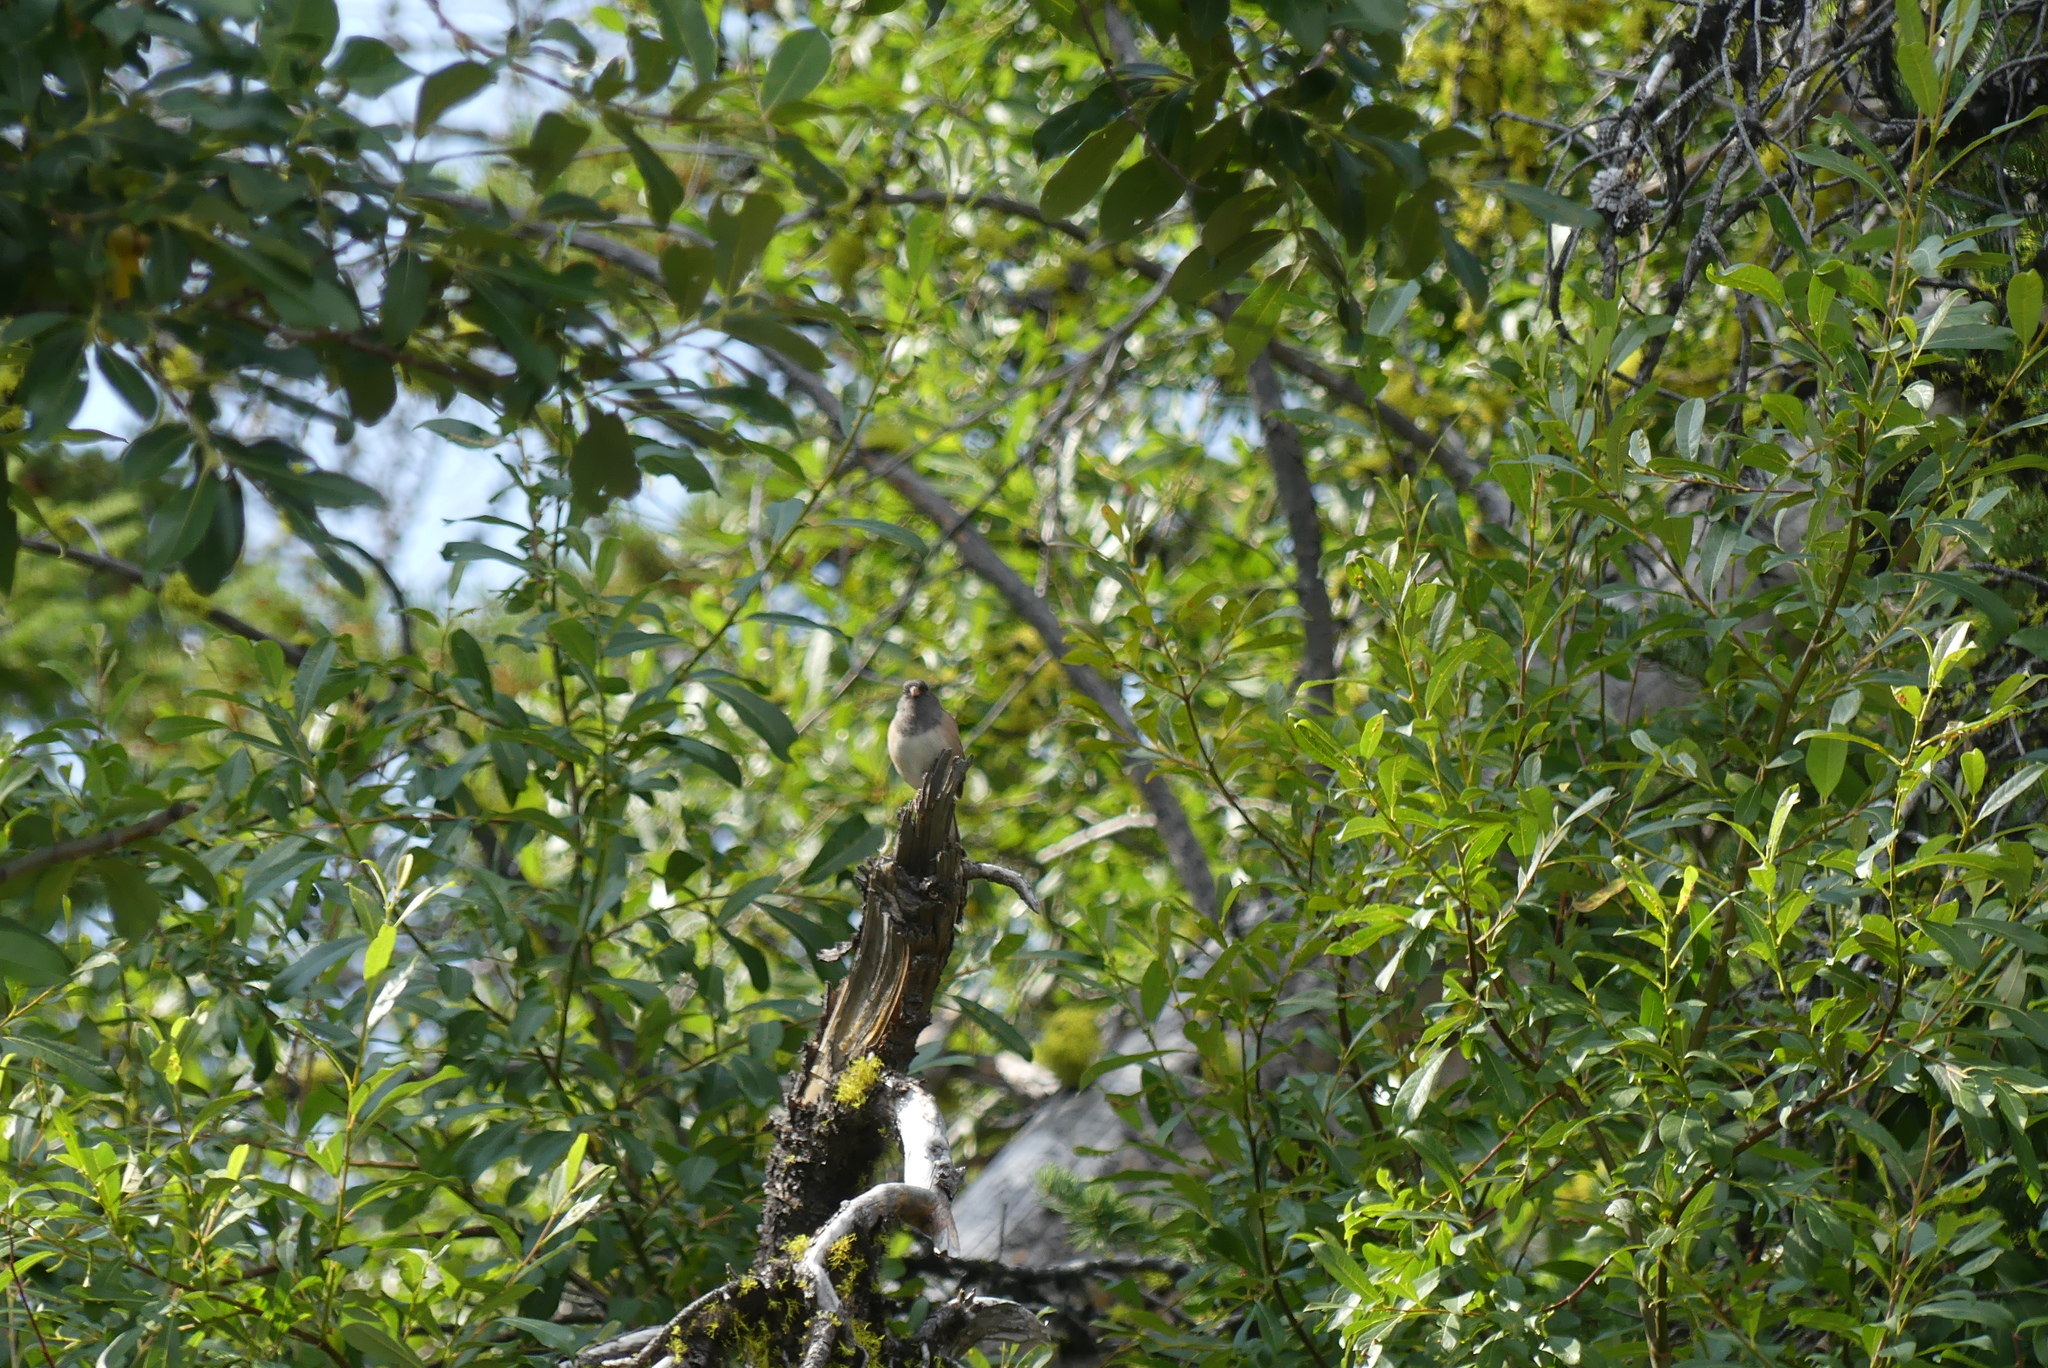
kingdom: Animalia
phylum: Chordata
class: Aves
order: Passeriformes
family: Passerellidae
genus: Junco
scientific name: Junco hyemalis
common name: Dark-eyed junco
